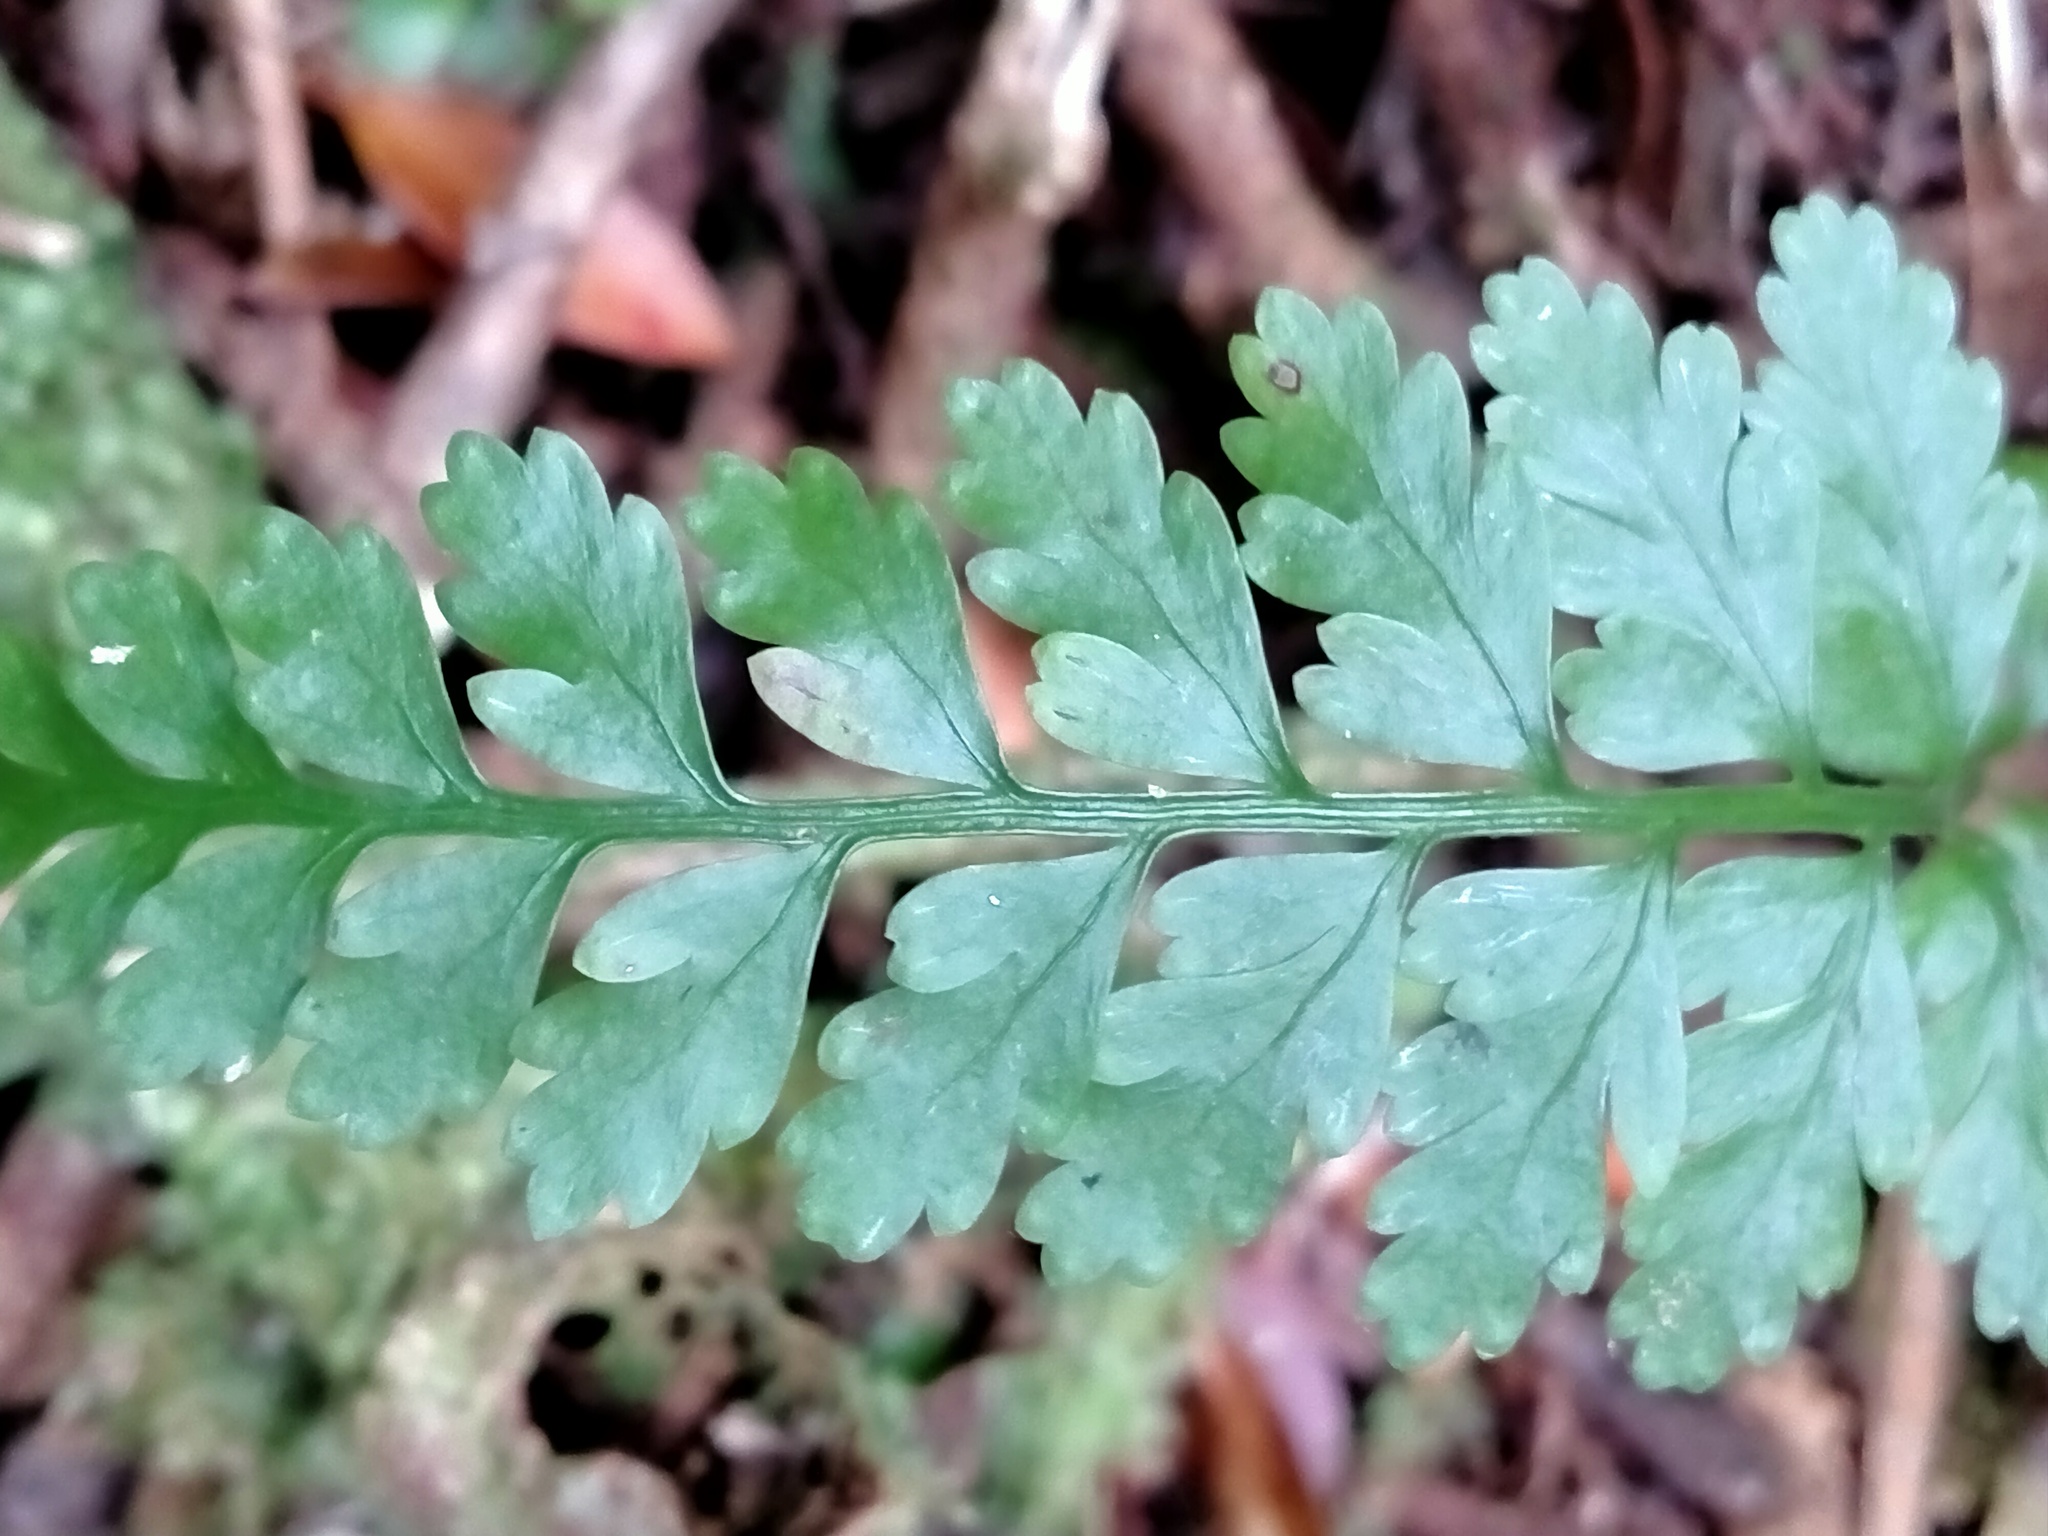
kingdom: Plantae
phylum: Tracheophyta
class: Polypodiopsida
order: Polypodiales
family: Aspleniaceae
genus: Asplenium
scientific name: Asplenium
